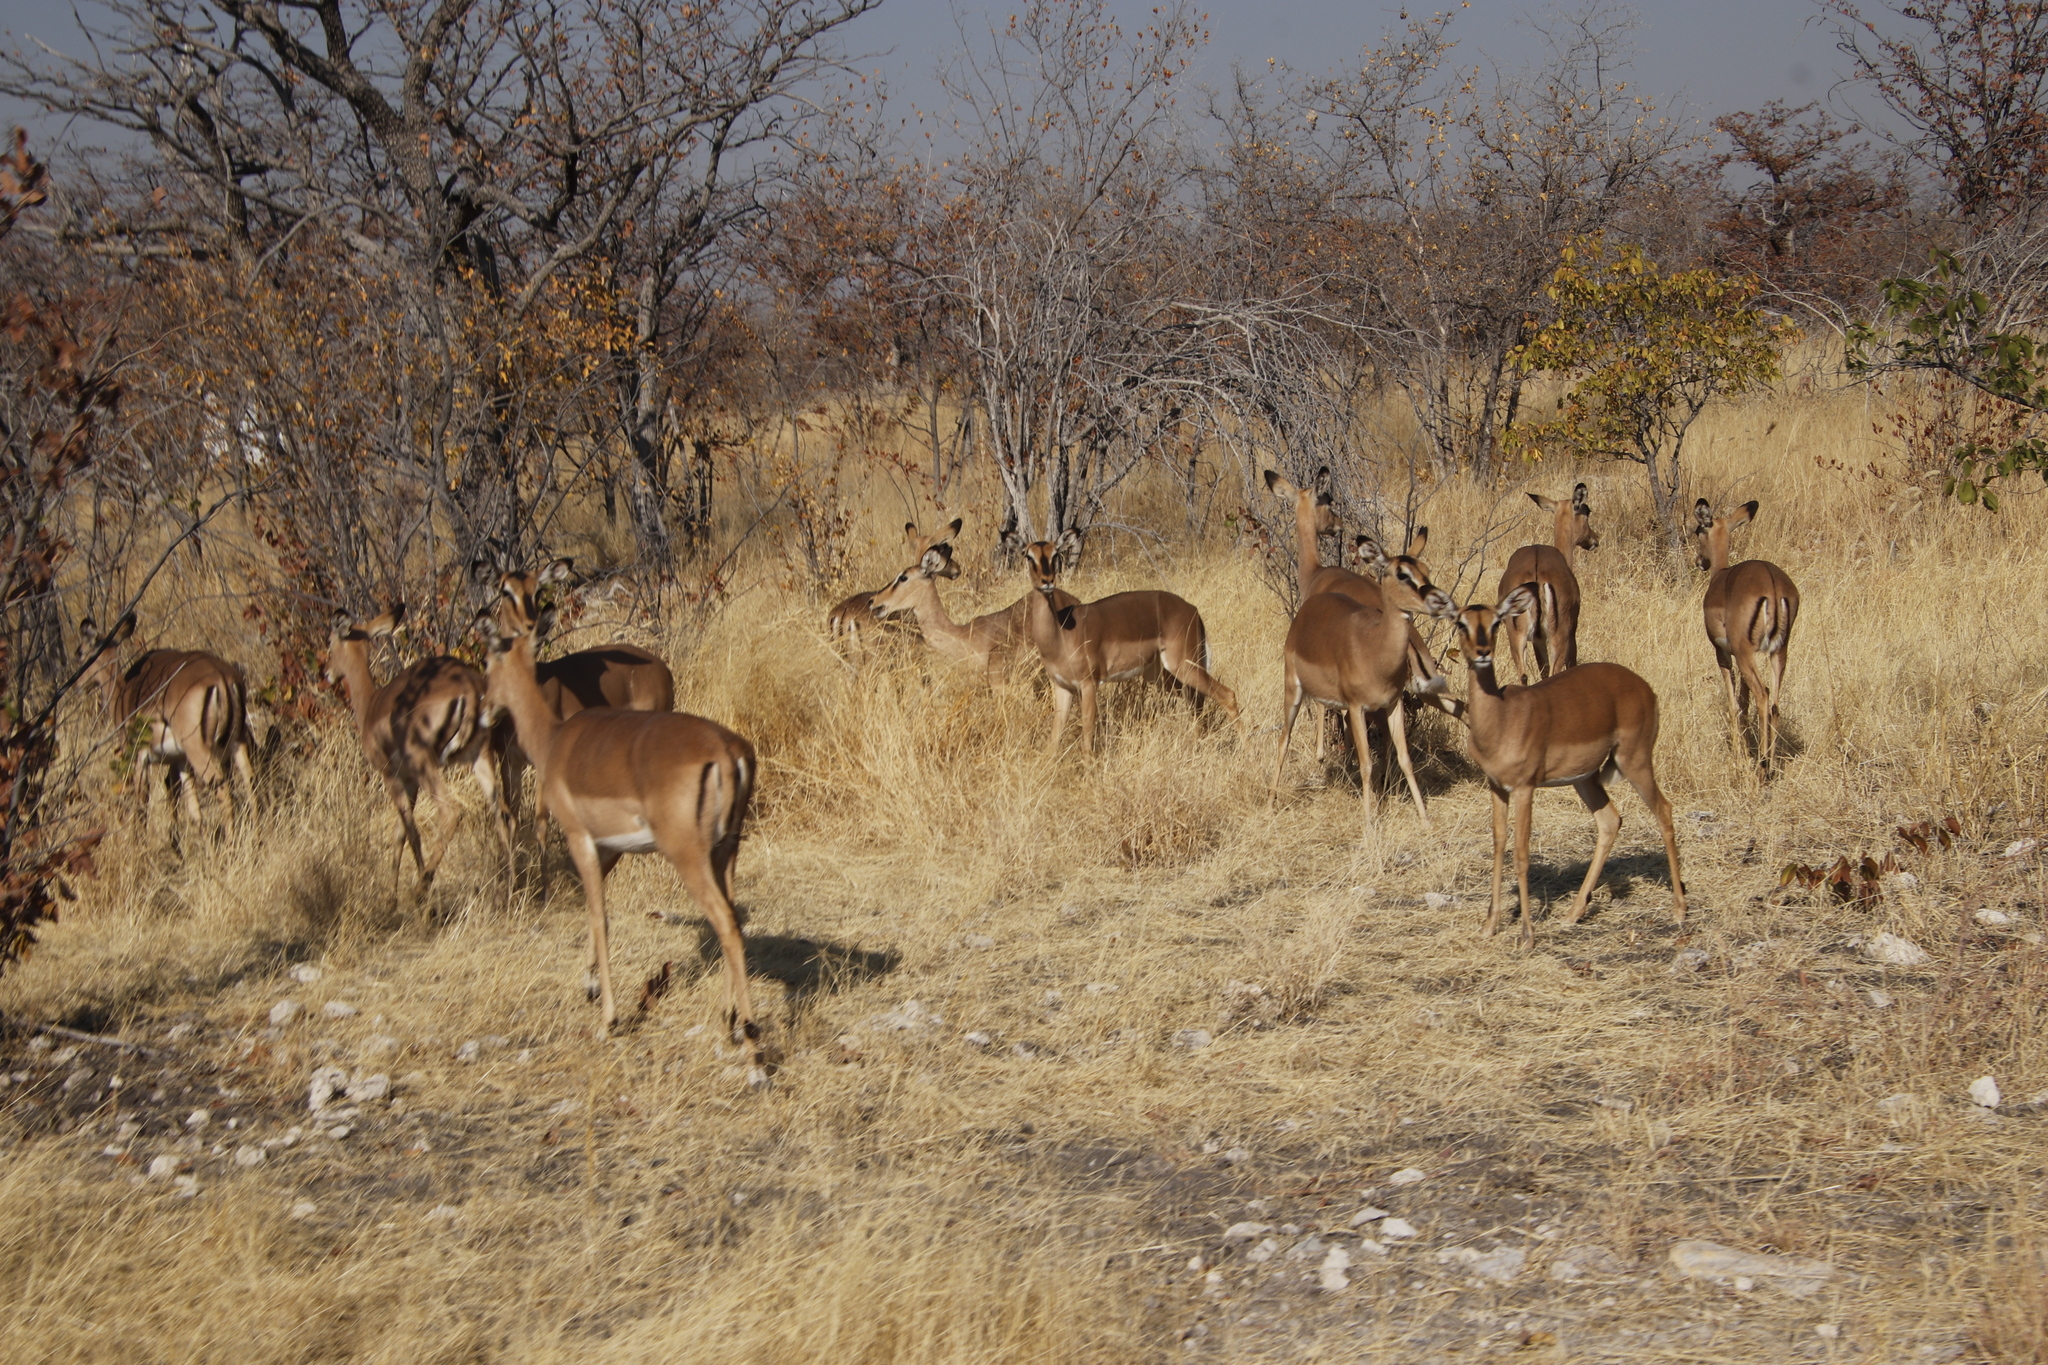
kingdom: Animalia
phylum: Chordata
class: Mammalia
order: Artiodactyla
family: Bovidae
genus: Aepyceros
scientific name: Aepyceros melampus
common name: Impala
